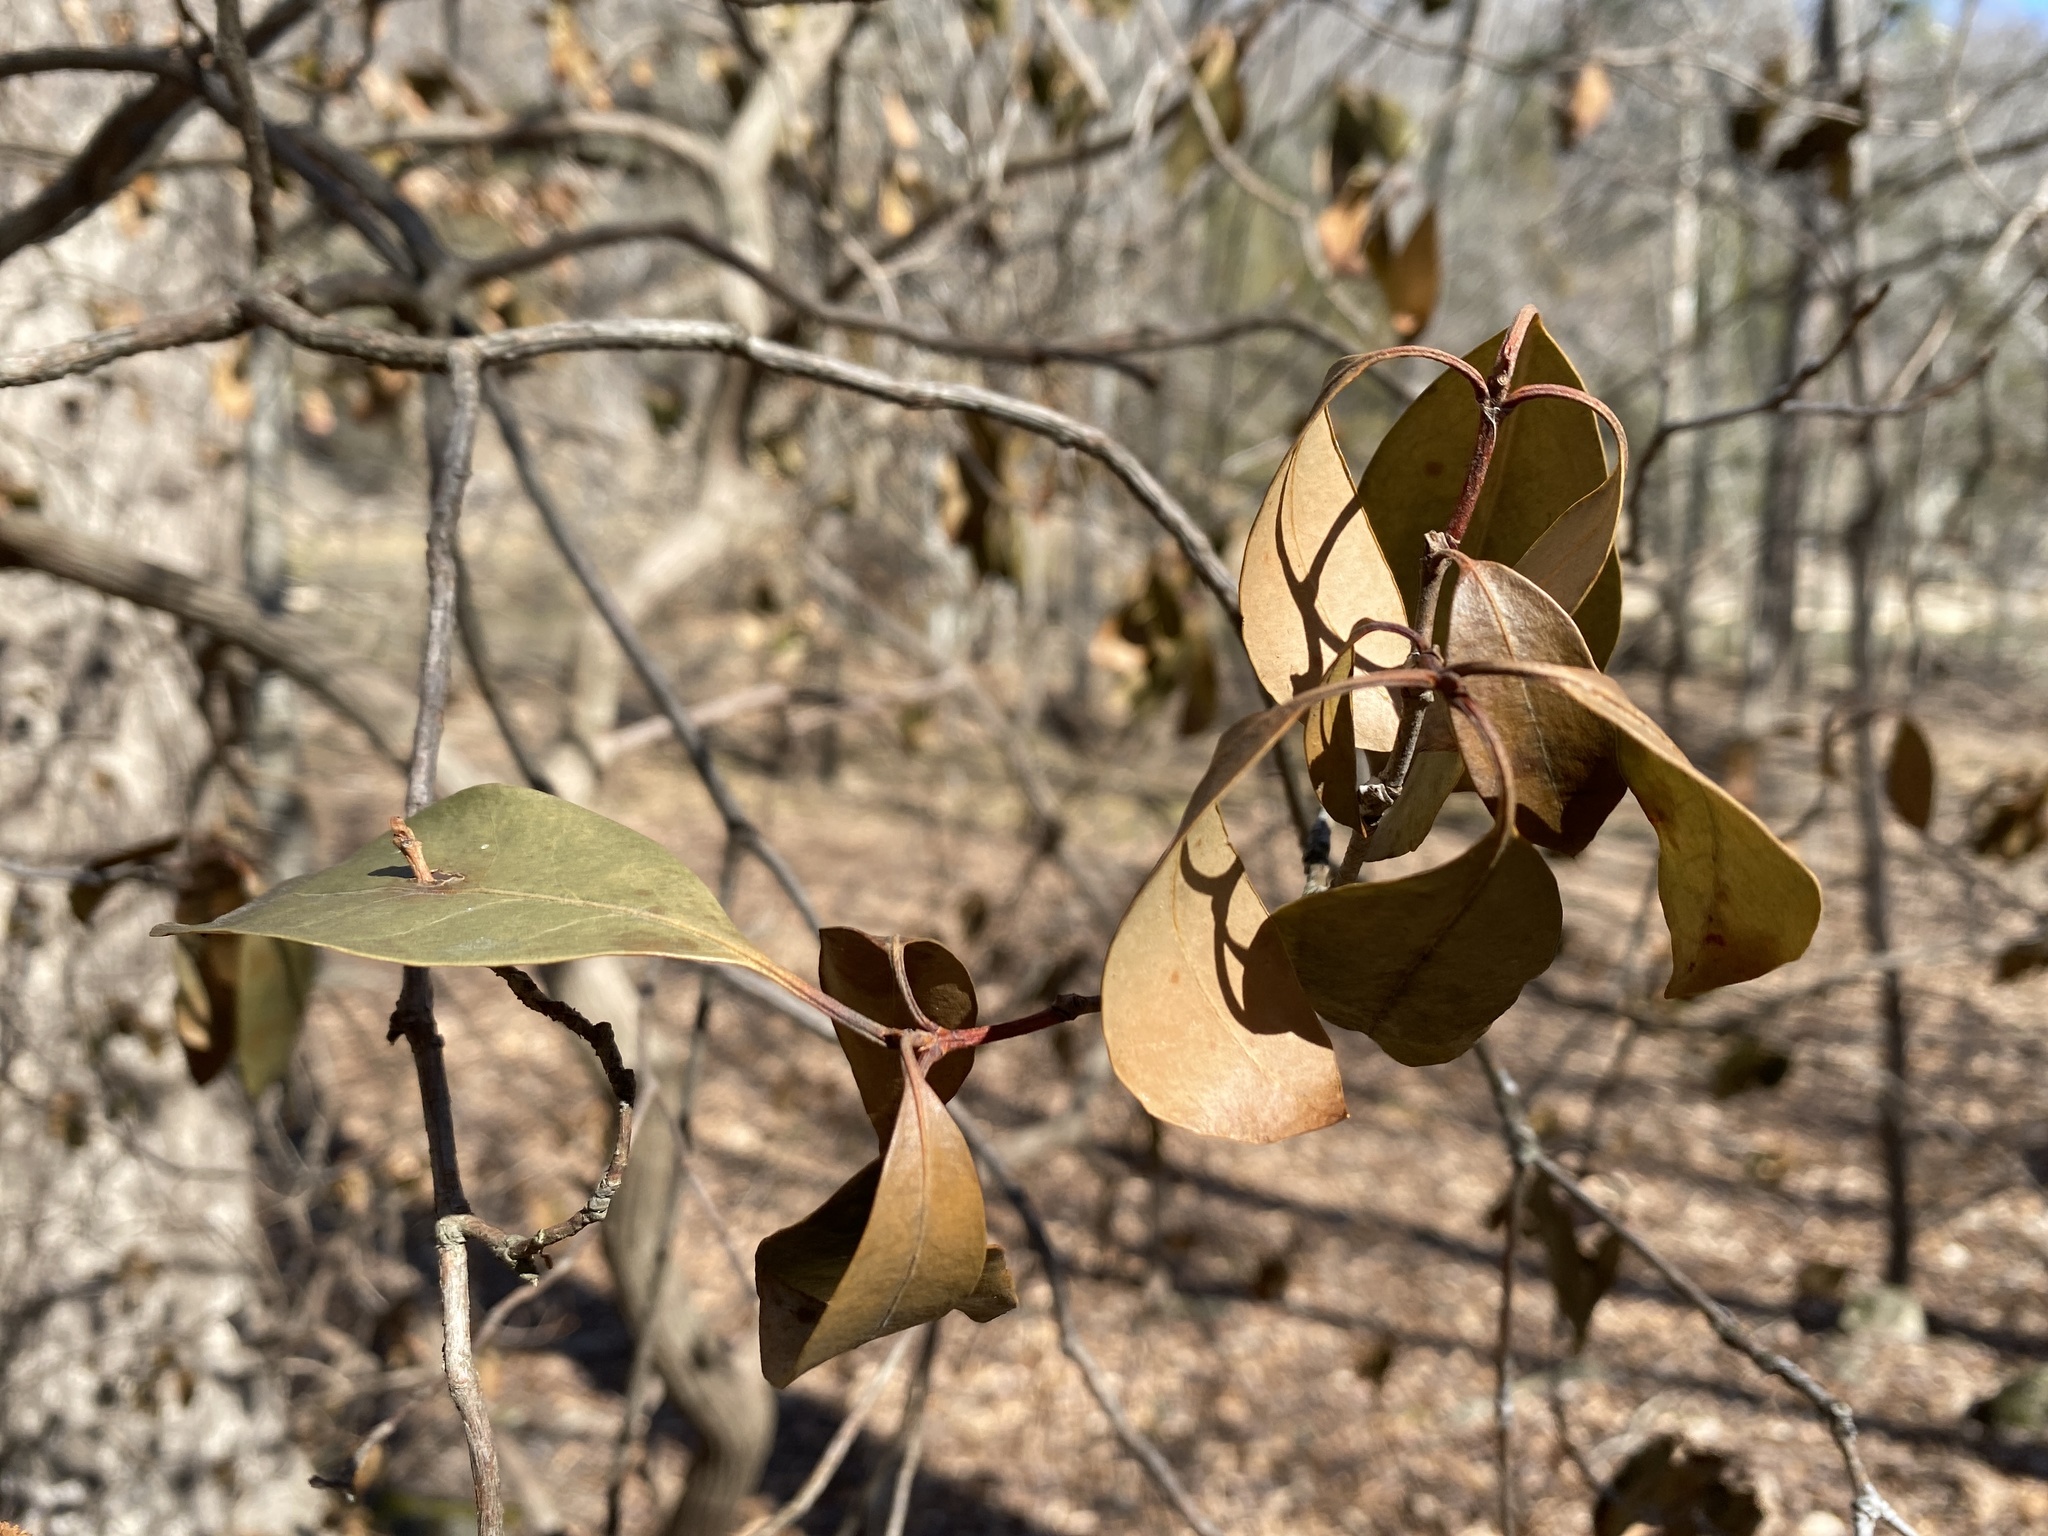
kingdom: Plantae
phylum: Tracheophyta
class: Magnoliopsida
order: Ericales
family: Ericaceae
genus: Kalmia
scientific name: Kalmia latifolia
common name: Mountain-laurel
